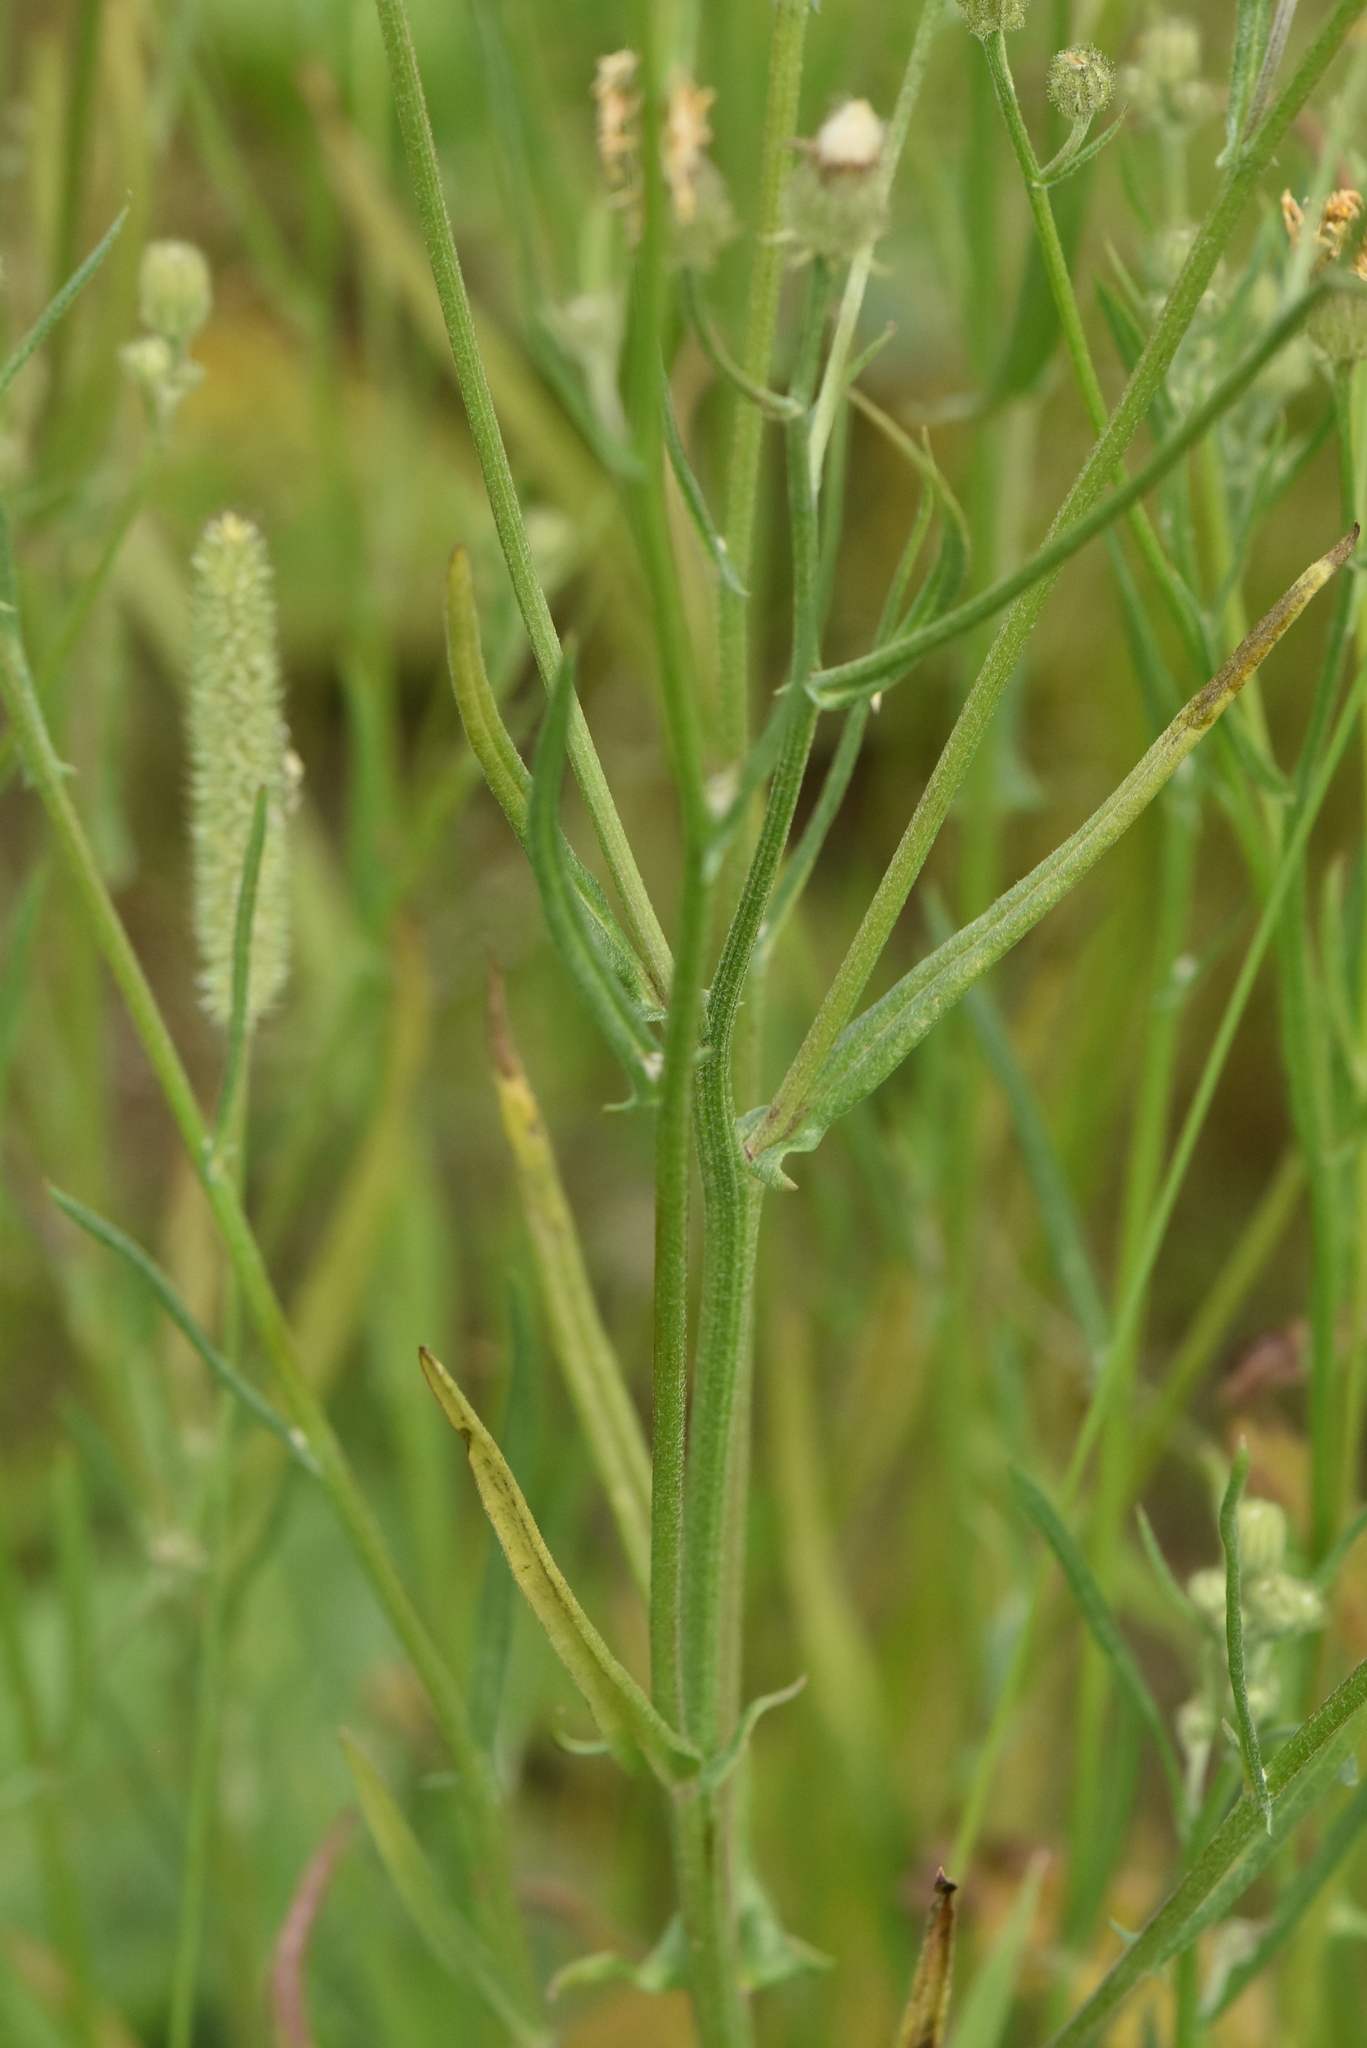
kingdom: Plantae
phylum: Tracheophyta
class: Magnoliopsida
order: Asterales
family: Asteraceae
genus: Crepis
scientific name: Crepis tectorum
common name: Narrow-leaved hawk's-beard
